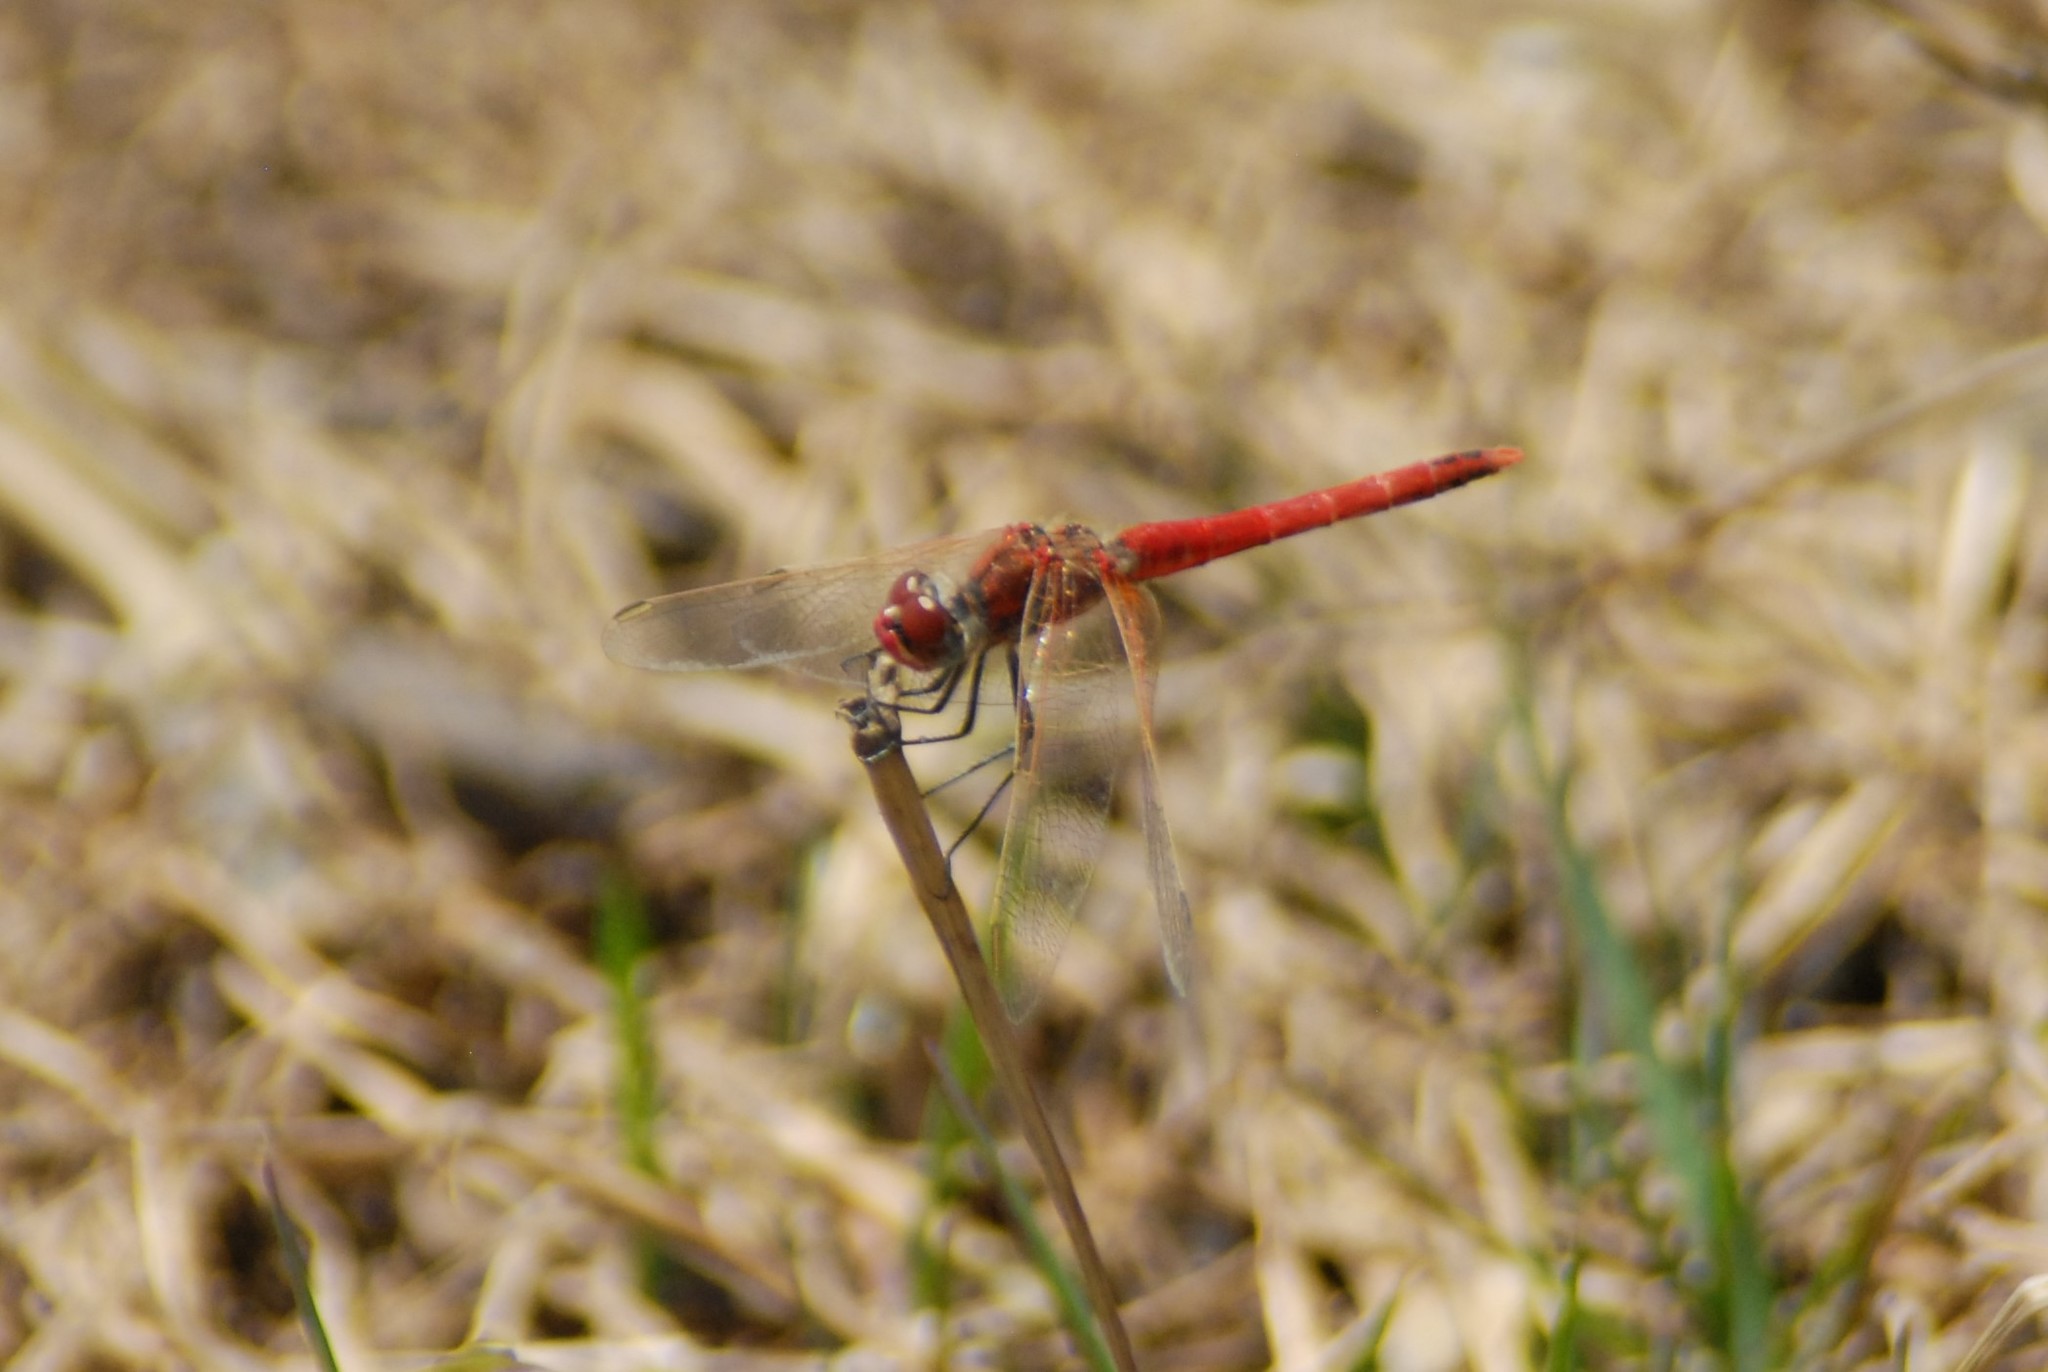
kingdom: Animalia
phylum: Arthropoda
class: Insecta
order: Odonata
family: Libellulidae
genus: Sympetrum
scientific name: Sympetrum fonscolombii
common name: Red-veined darter
